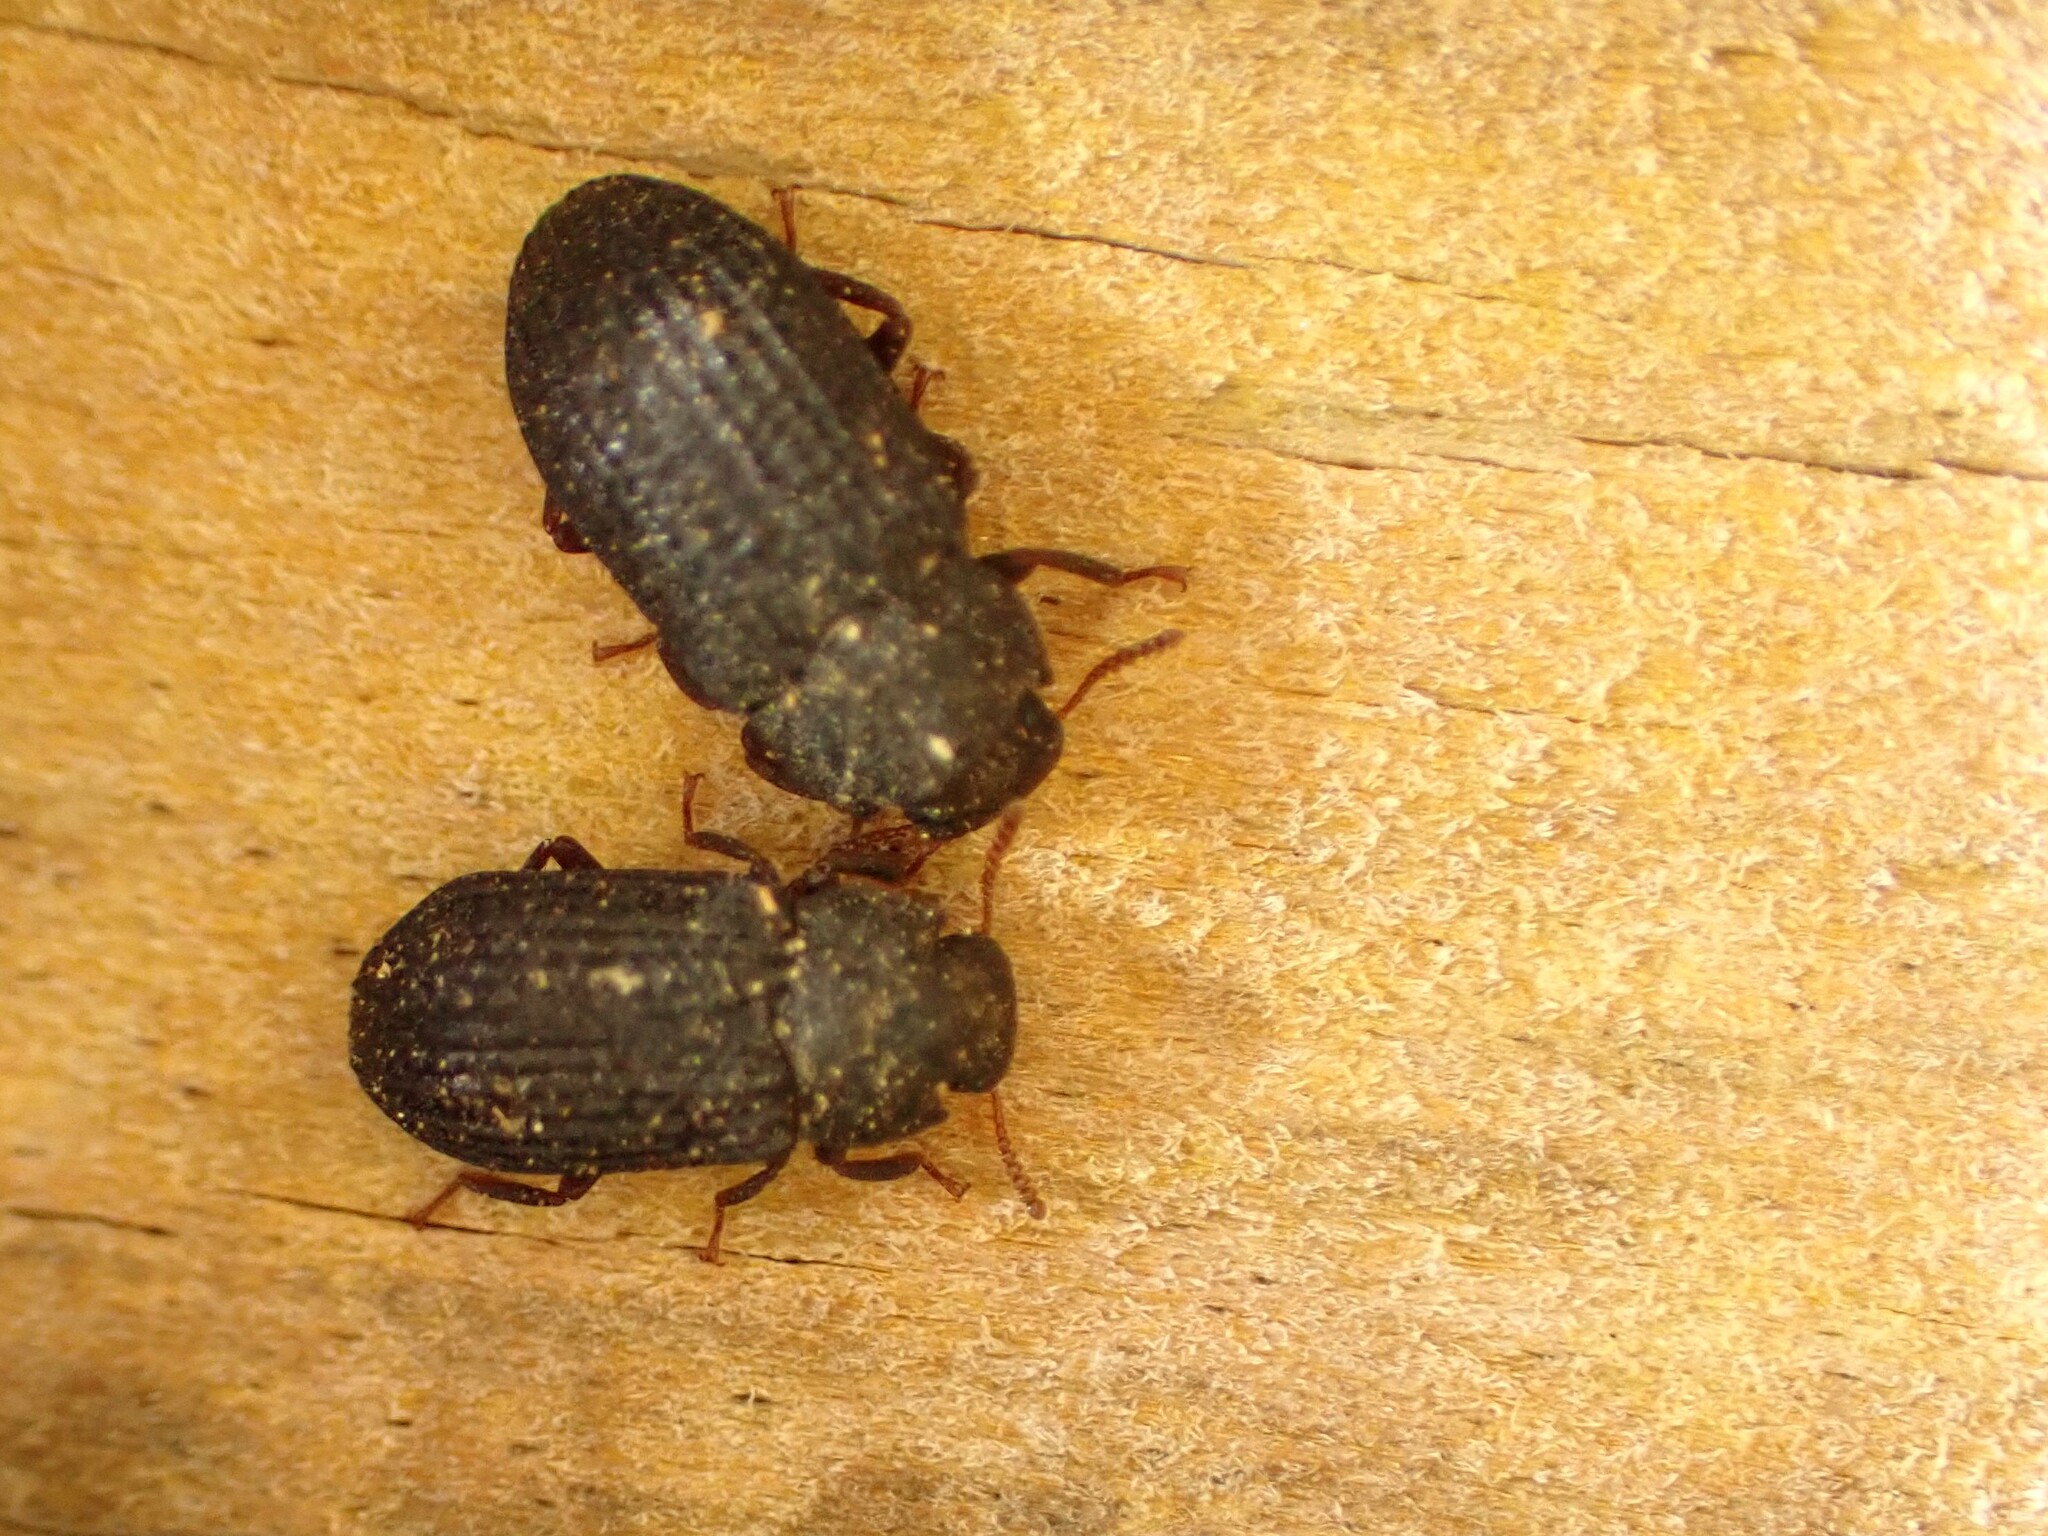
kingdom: Animalia
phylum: Arthropoda
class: Insecta
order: Coleoptera
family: Tenebrionidae
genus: Bradymerus
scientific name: Bradymerus tahitiensis
